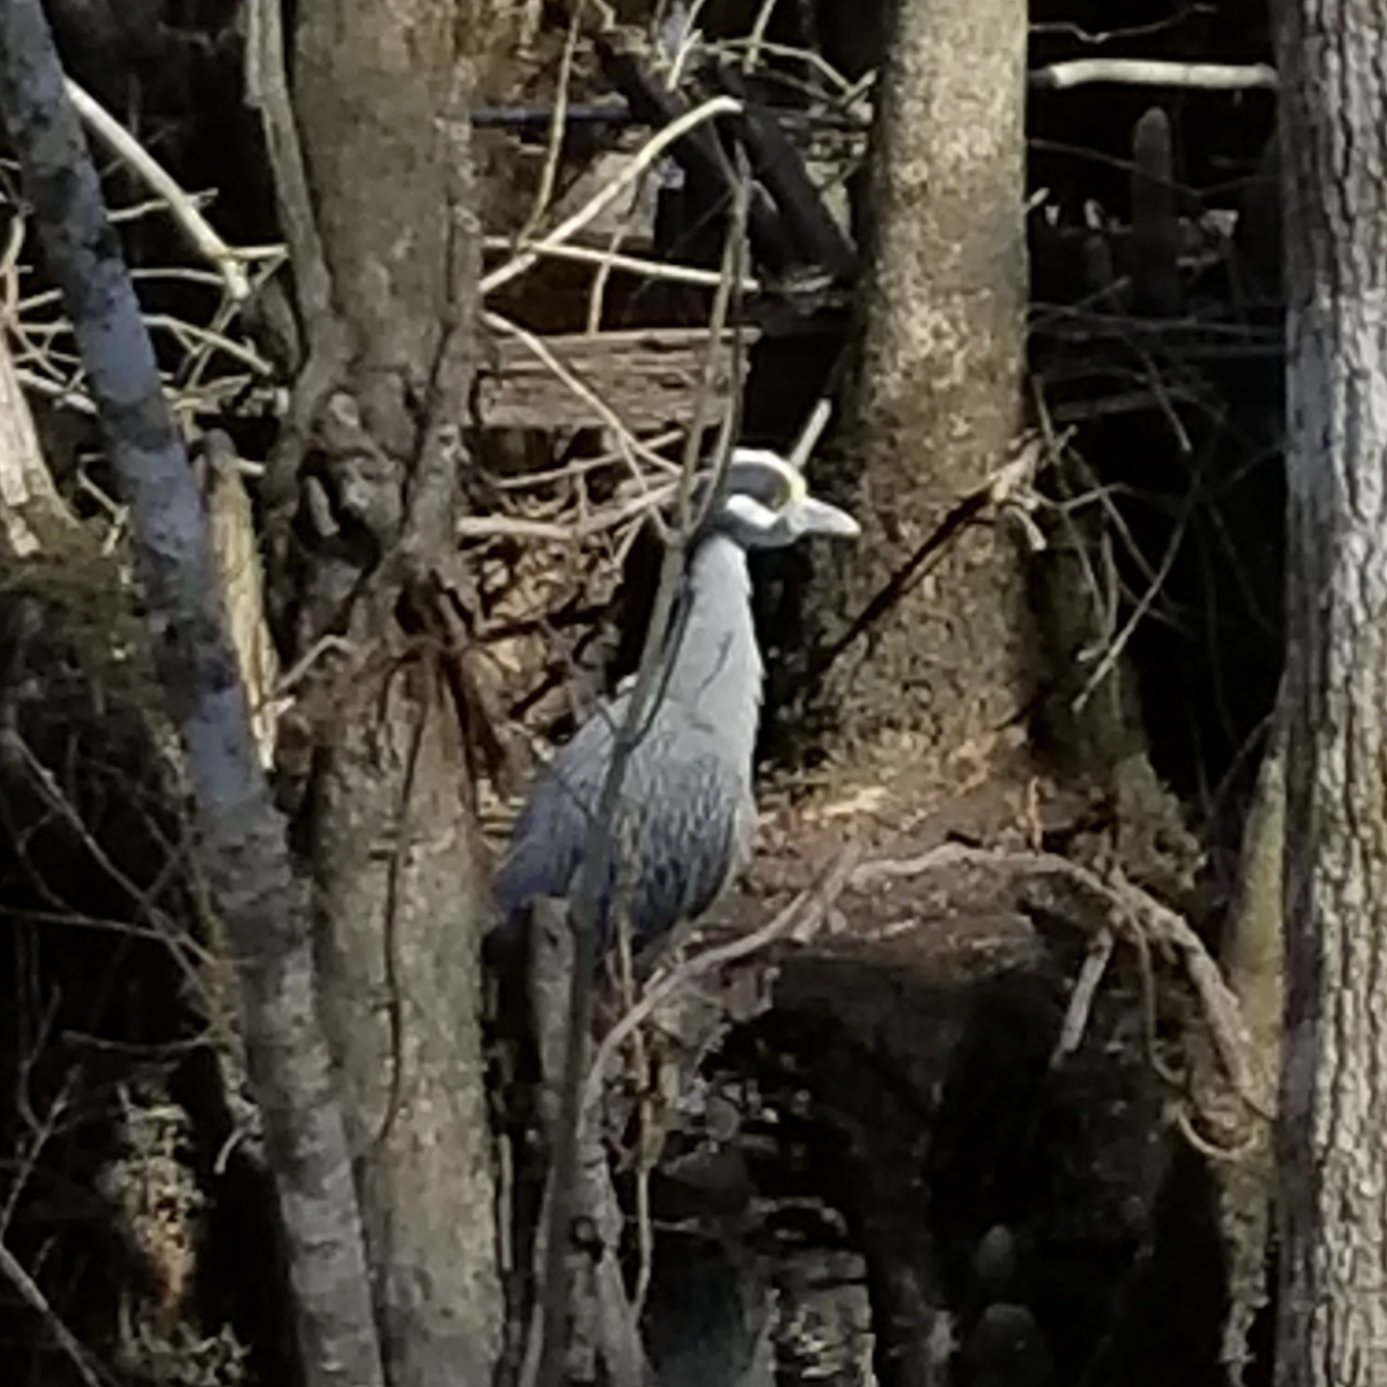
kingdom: Animalia
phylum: Chordata
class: Aves
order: Pelecaniformes
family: Ardeidae
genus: Nyctanassa
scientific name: Nyctanassa violacea
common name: Yellow-crowned night heron
